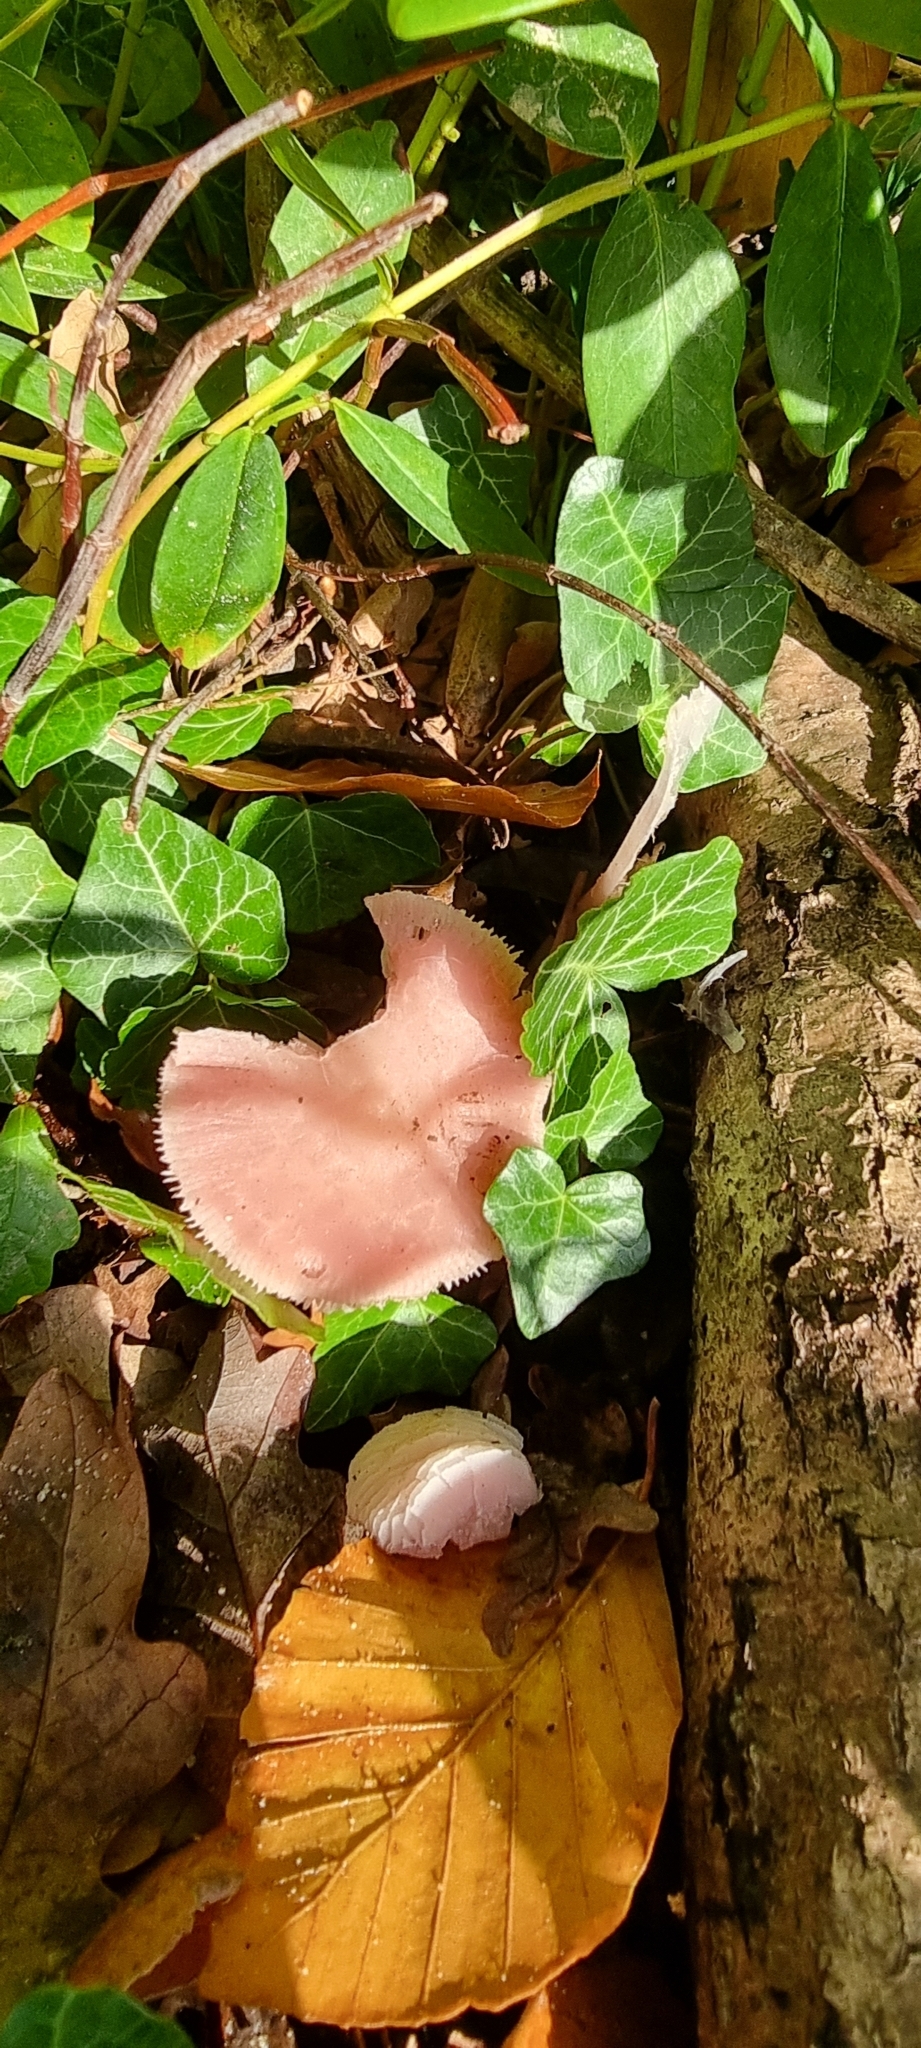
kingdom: Fungi
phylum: Basidiomycota
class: Agaricomycetes
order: Agaricales
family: Mycenaceae
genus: Mycena
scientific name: Mycena rosea
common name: Rosy bonnet
